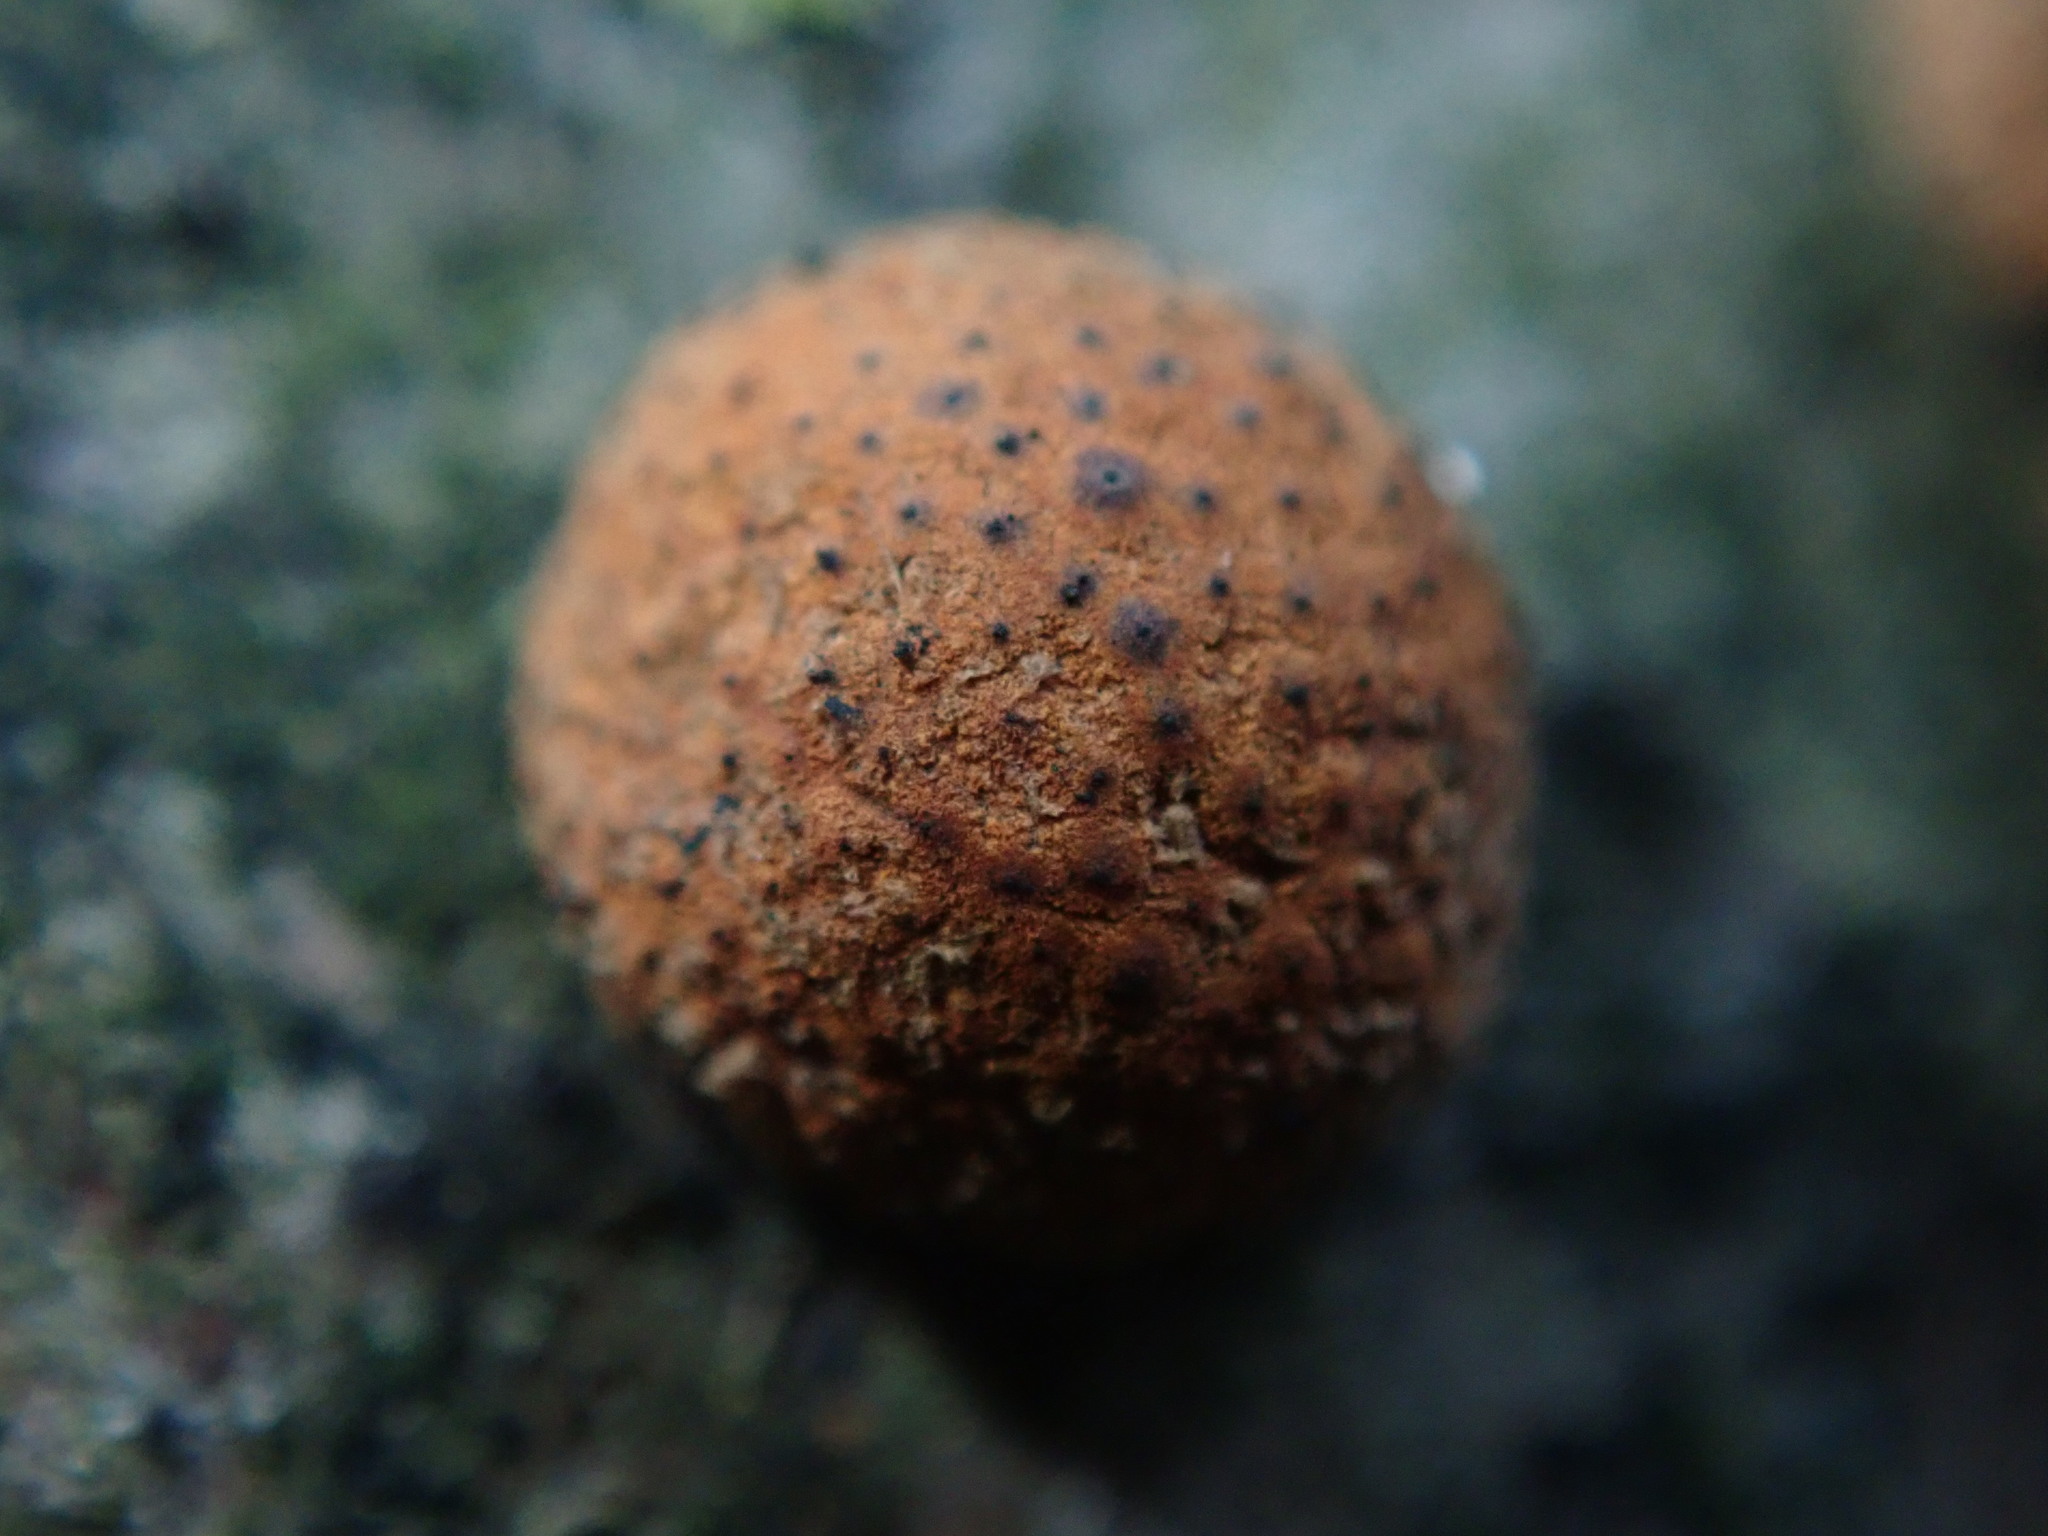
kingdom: Fungi
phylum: Ascomycota
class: Sordariomycetes
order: Xylariales
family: Hypoxylaceae
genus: Hypoxylon
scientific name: Hypoxylon fragiforme
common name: Beech woodwart
